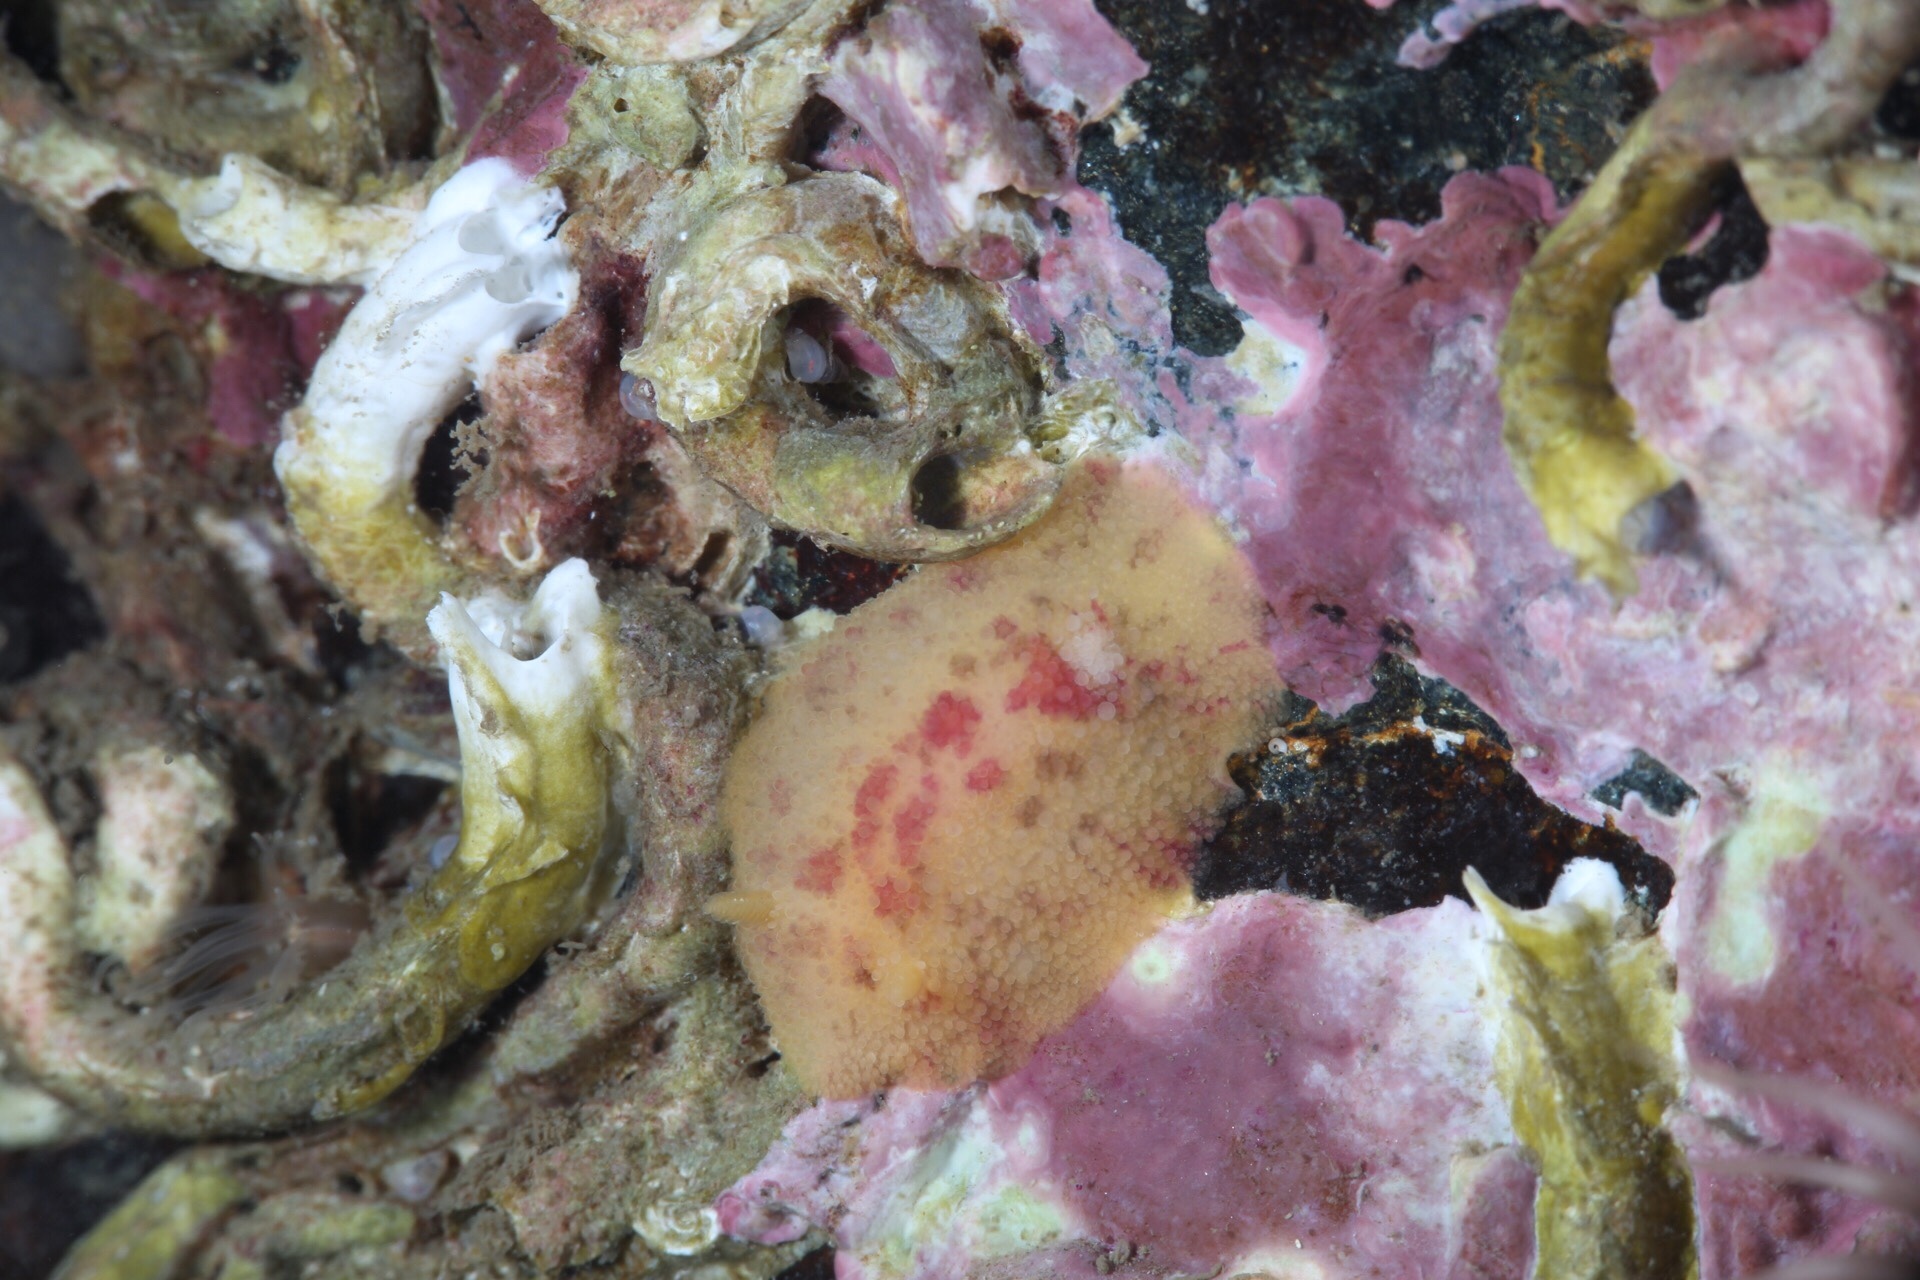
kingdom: Animalia
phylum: Mollusca
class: Gastropoda
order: Nudibranchia
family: Dorididae
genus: Doris
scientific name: Doris pseudoargus
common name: Sea lemon
